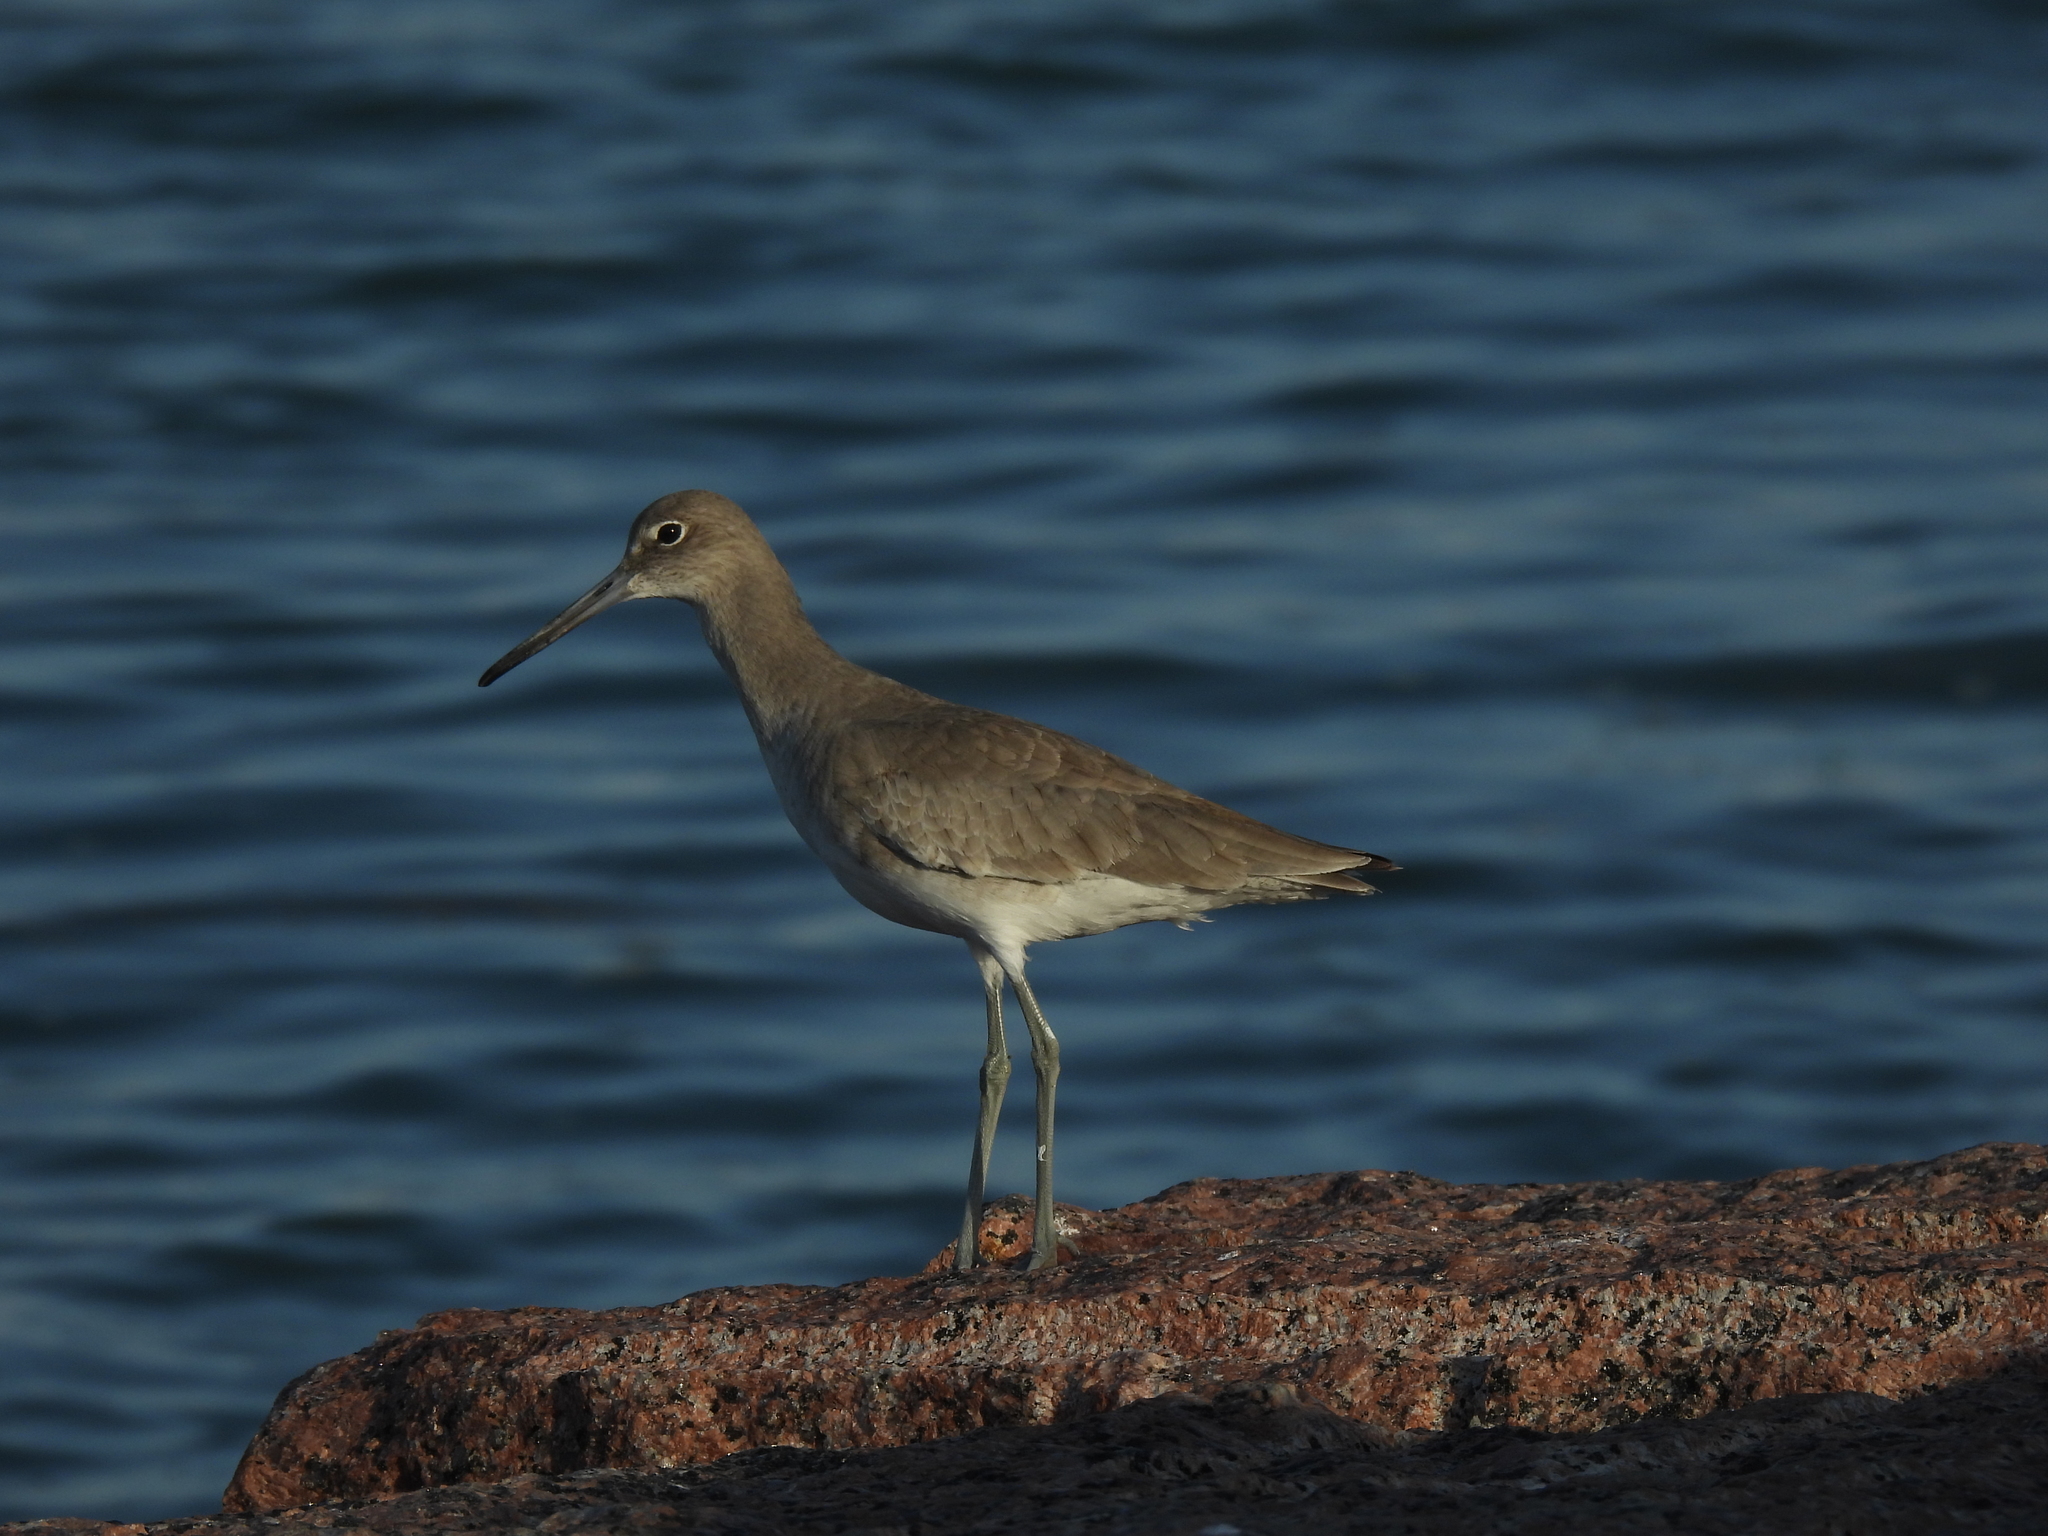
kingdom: Animalia
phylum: Chordata
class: Aves
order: Charadriiformes
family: Scolopacidae
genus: Tringa
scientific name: Tringa semipalmata
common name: Willet
